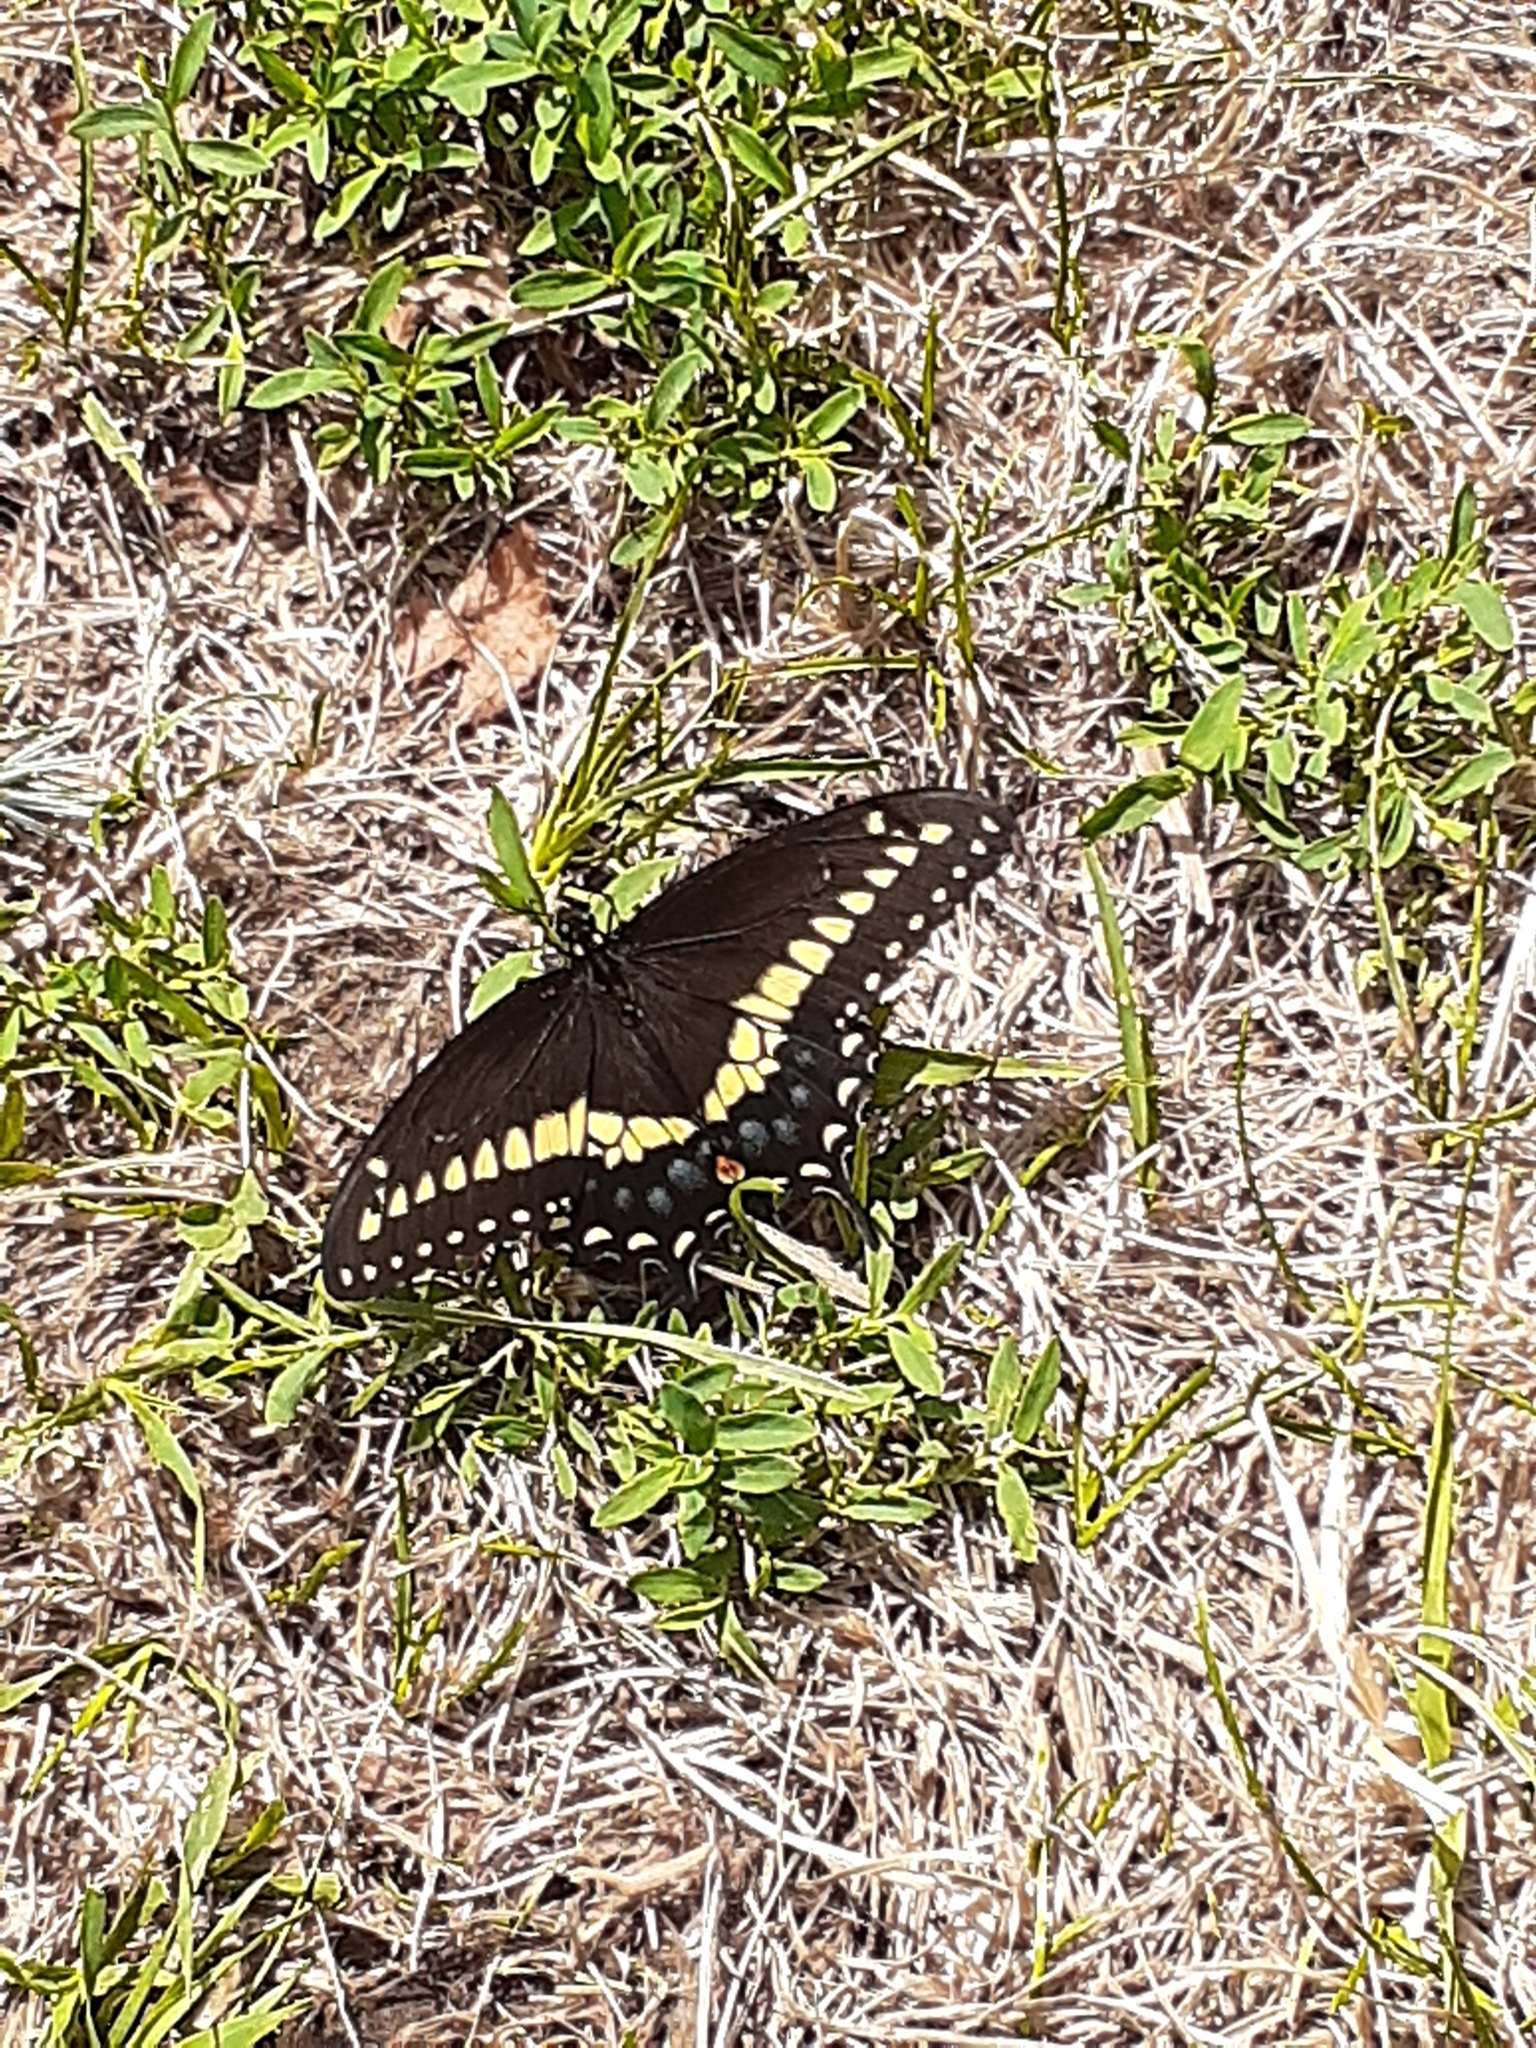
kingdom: Animalia
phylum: Arthropoda
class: Insecta
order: Lepidoptera
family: Papilionidae
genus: Papilio
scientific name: Papilio polyxenes
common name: Black swallowtail
